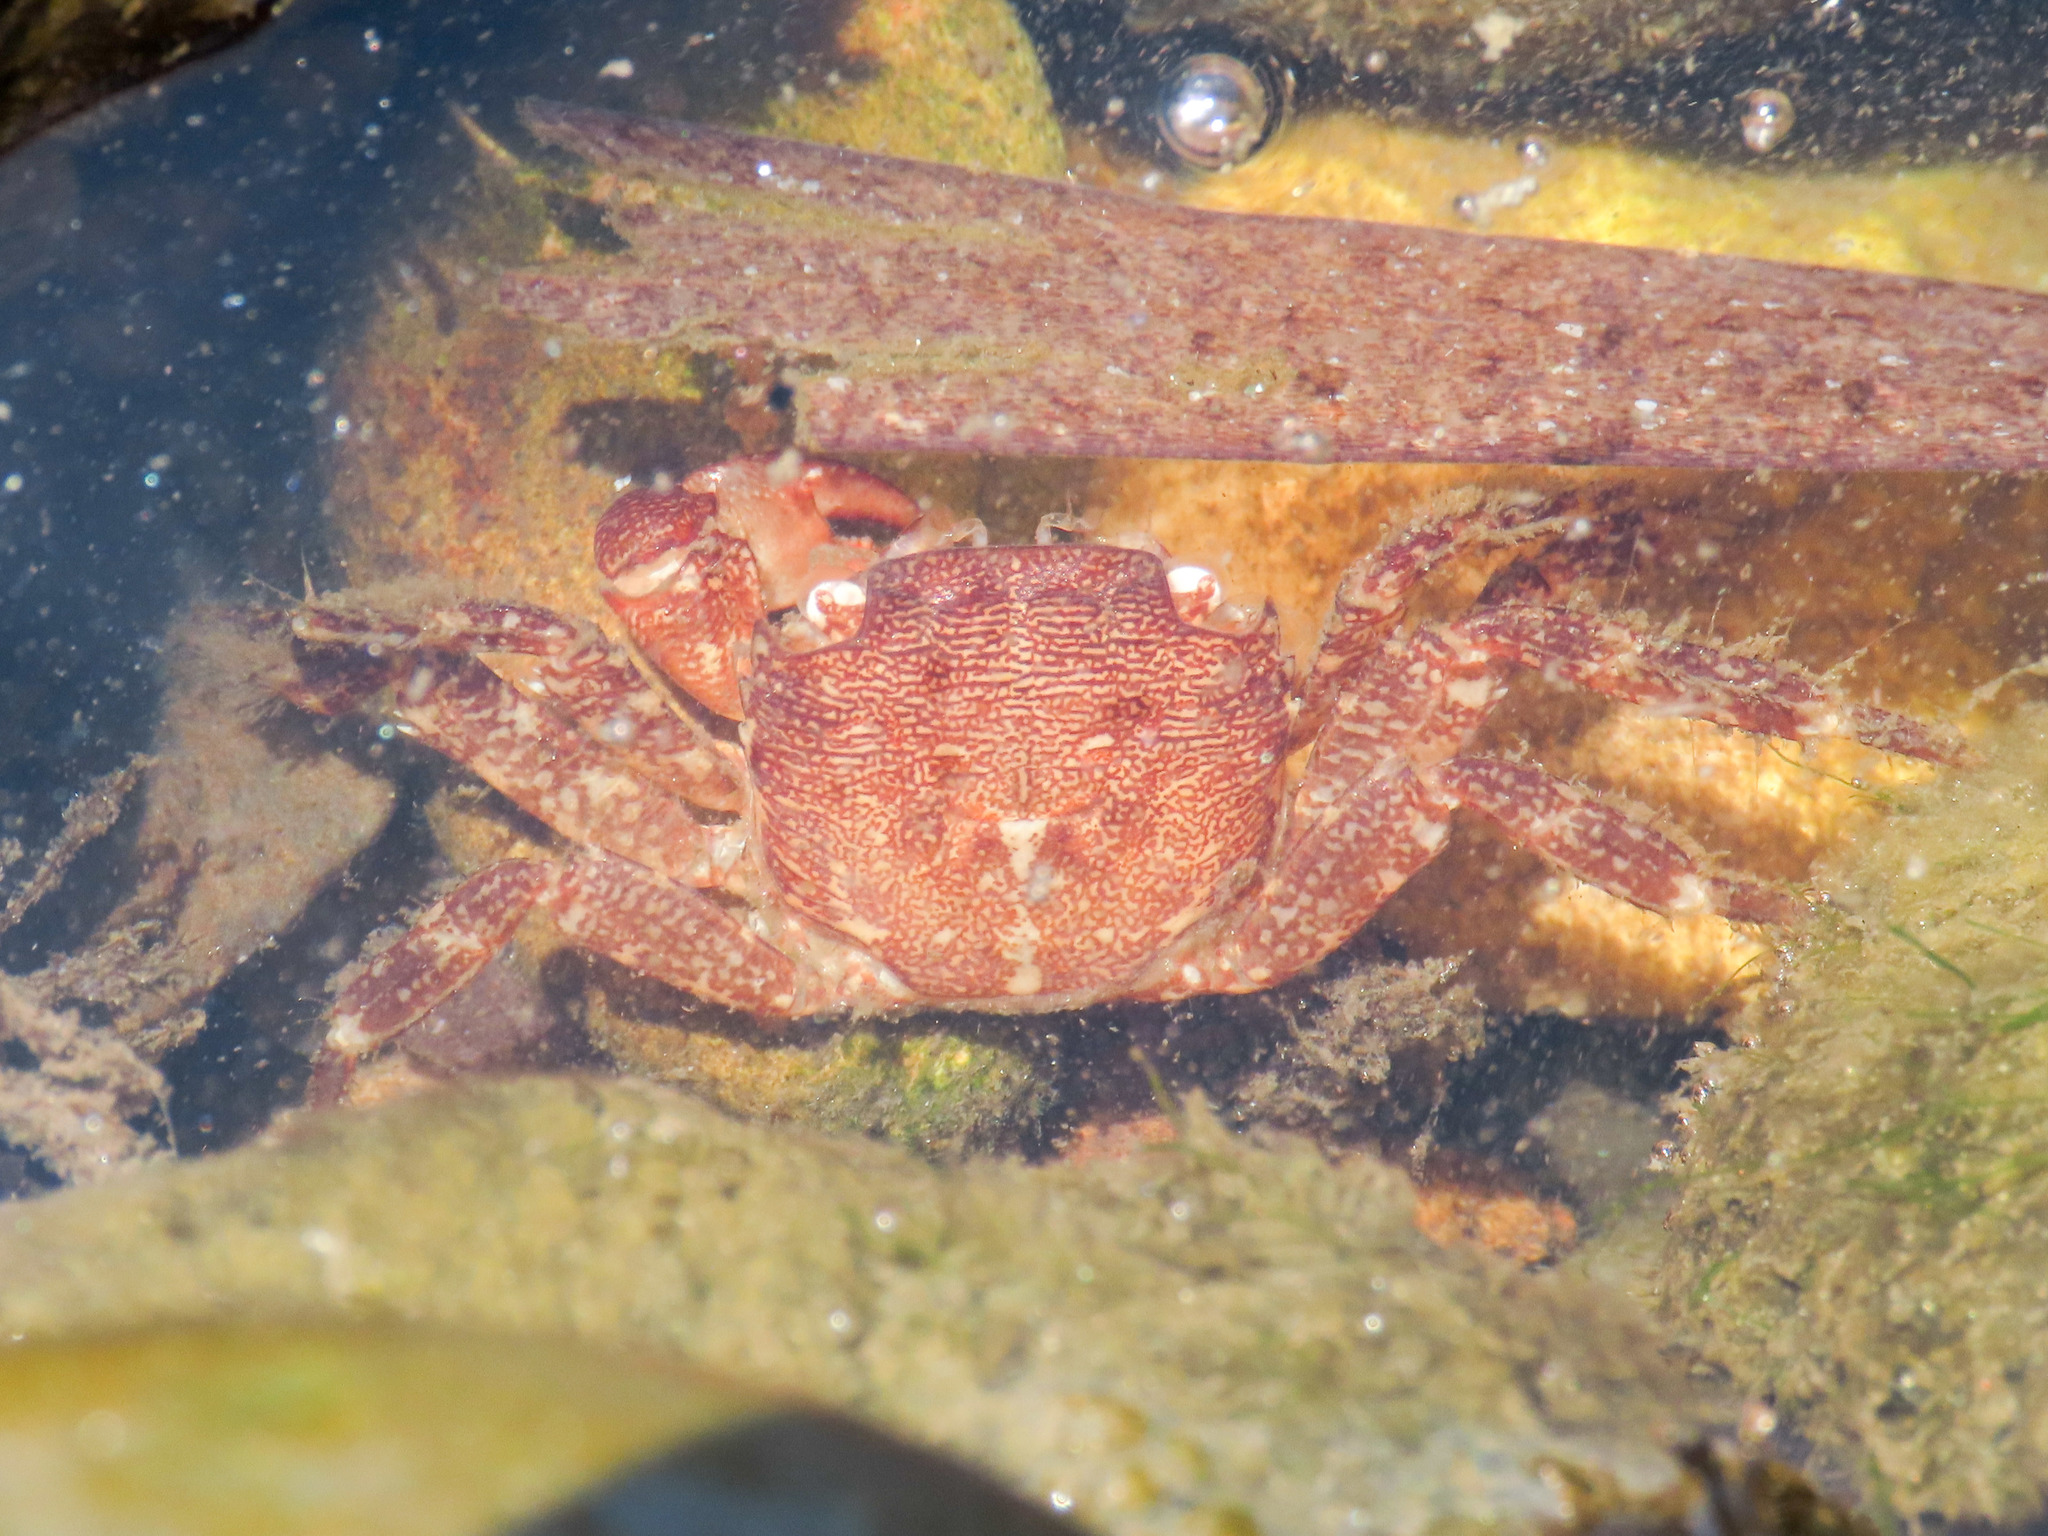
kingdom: Animalia
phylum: Arthropoda
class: Malacostraca
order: Decapoda
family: Grapsidae
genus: Pachygrapsus
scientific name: Pachygrapsus marmoratus
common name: Marbled rock crab
